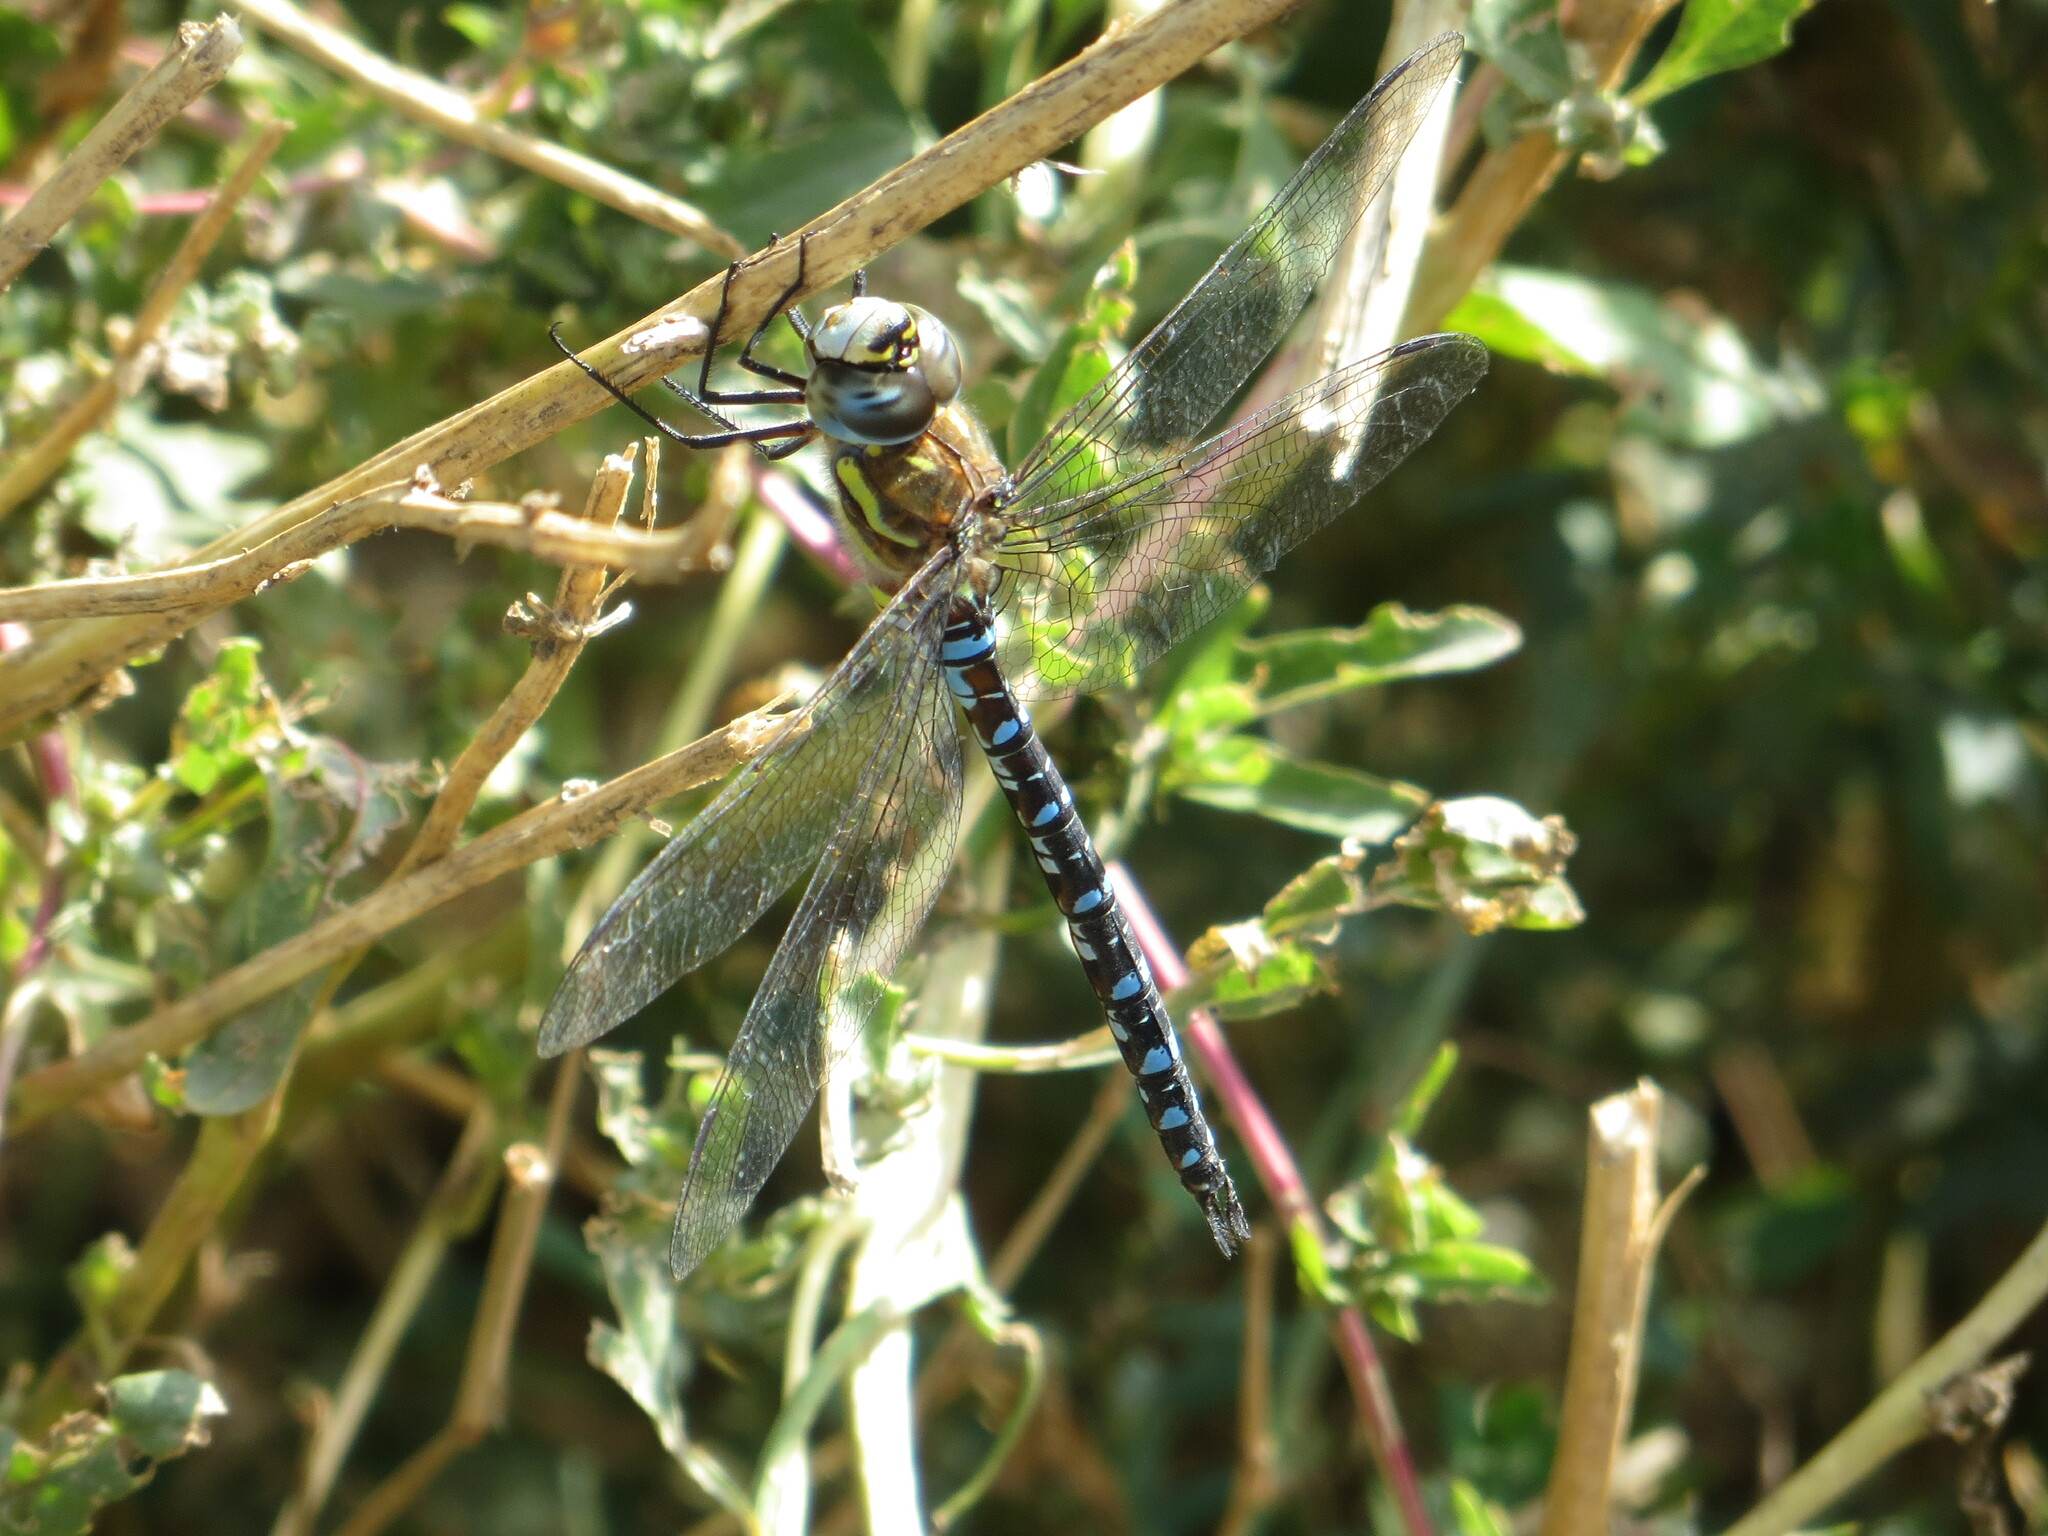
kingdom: Animalia
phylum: Arthropoda
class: Insecta
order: Odonata
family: Aeshnidae
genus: Aeshna
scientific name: Aeshna mixta
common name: Migrant hawker
